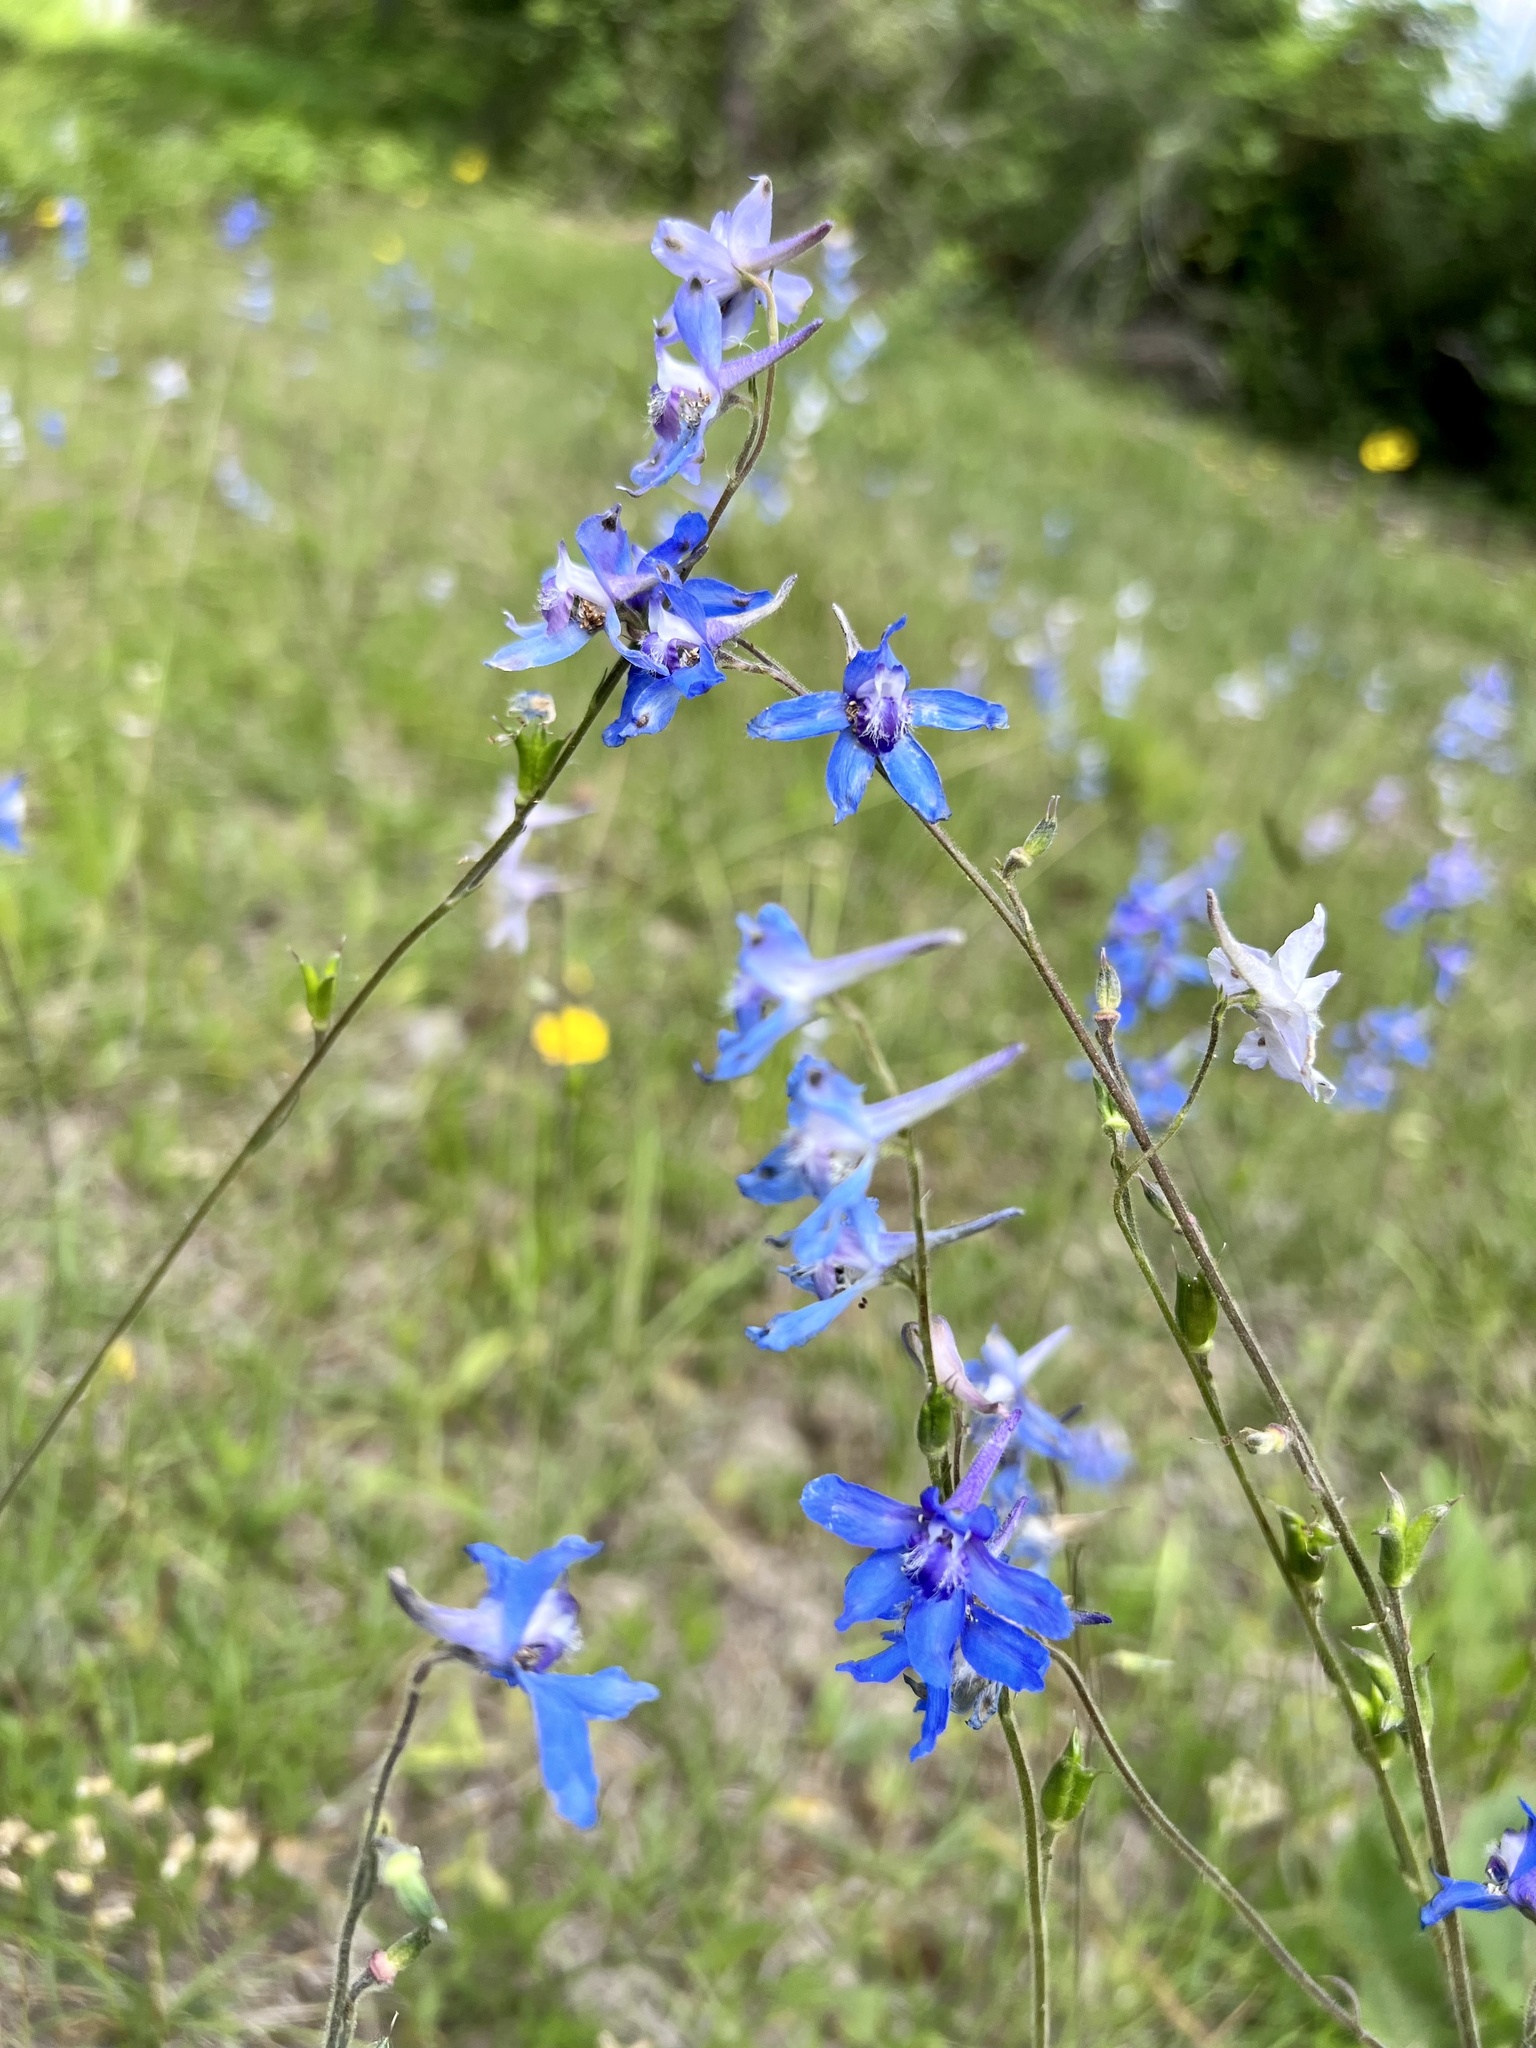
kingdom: Plantae
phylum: Tracheophyta
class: Magnoliopsida
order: Ranunculales
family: Ranunculaceae
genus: Delphinium
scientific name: Delphinium carolinianum
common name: Carolina larkspur
